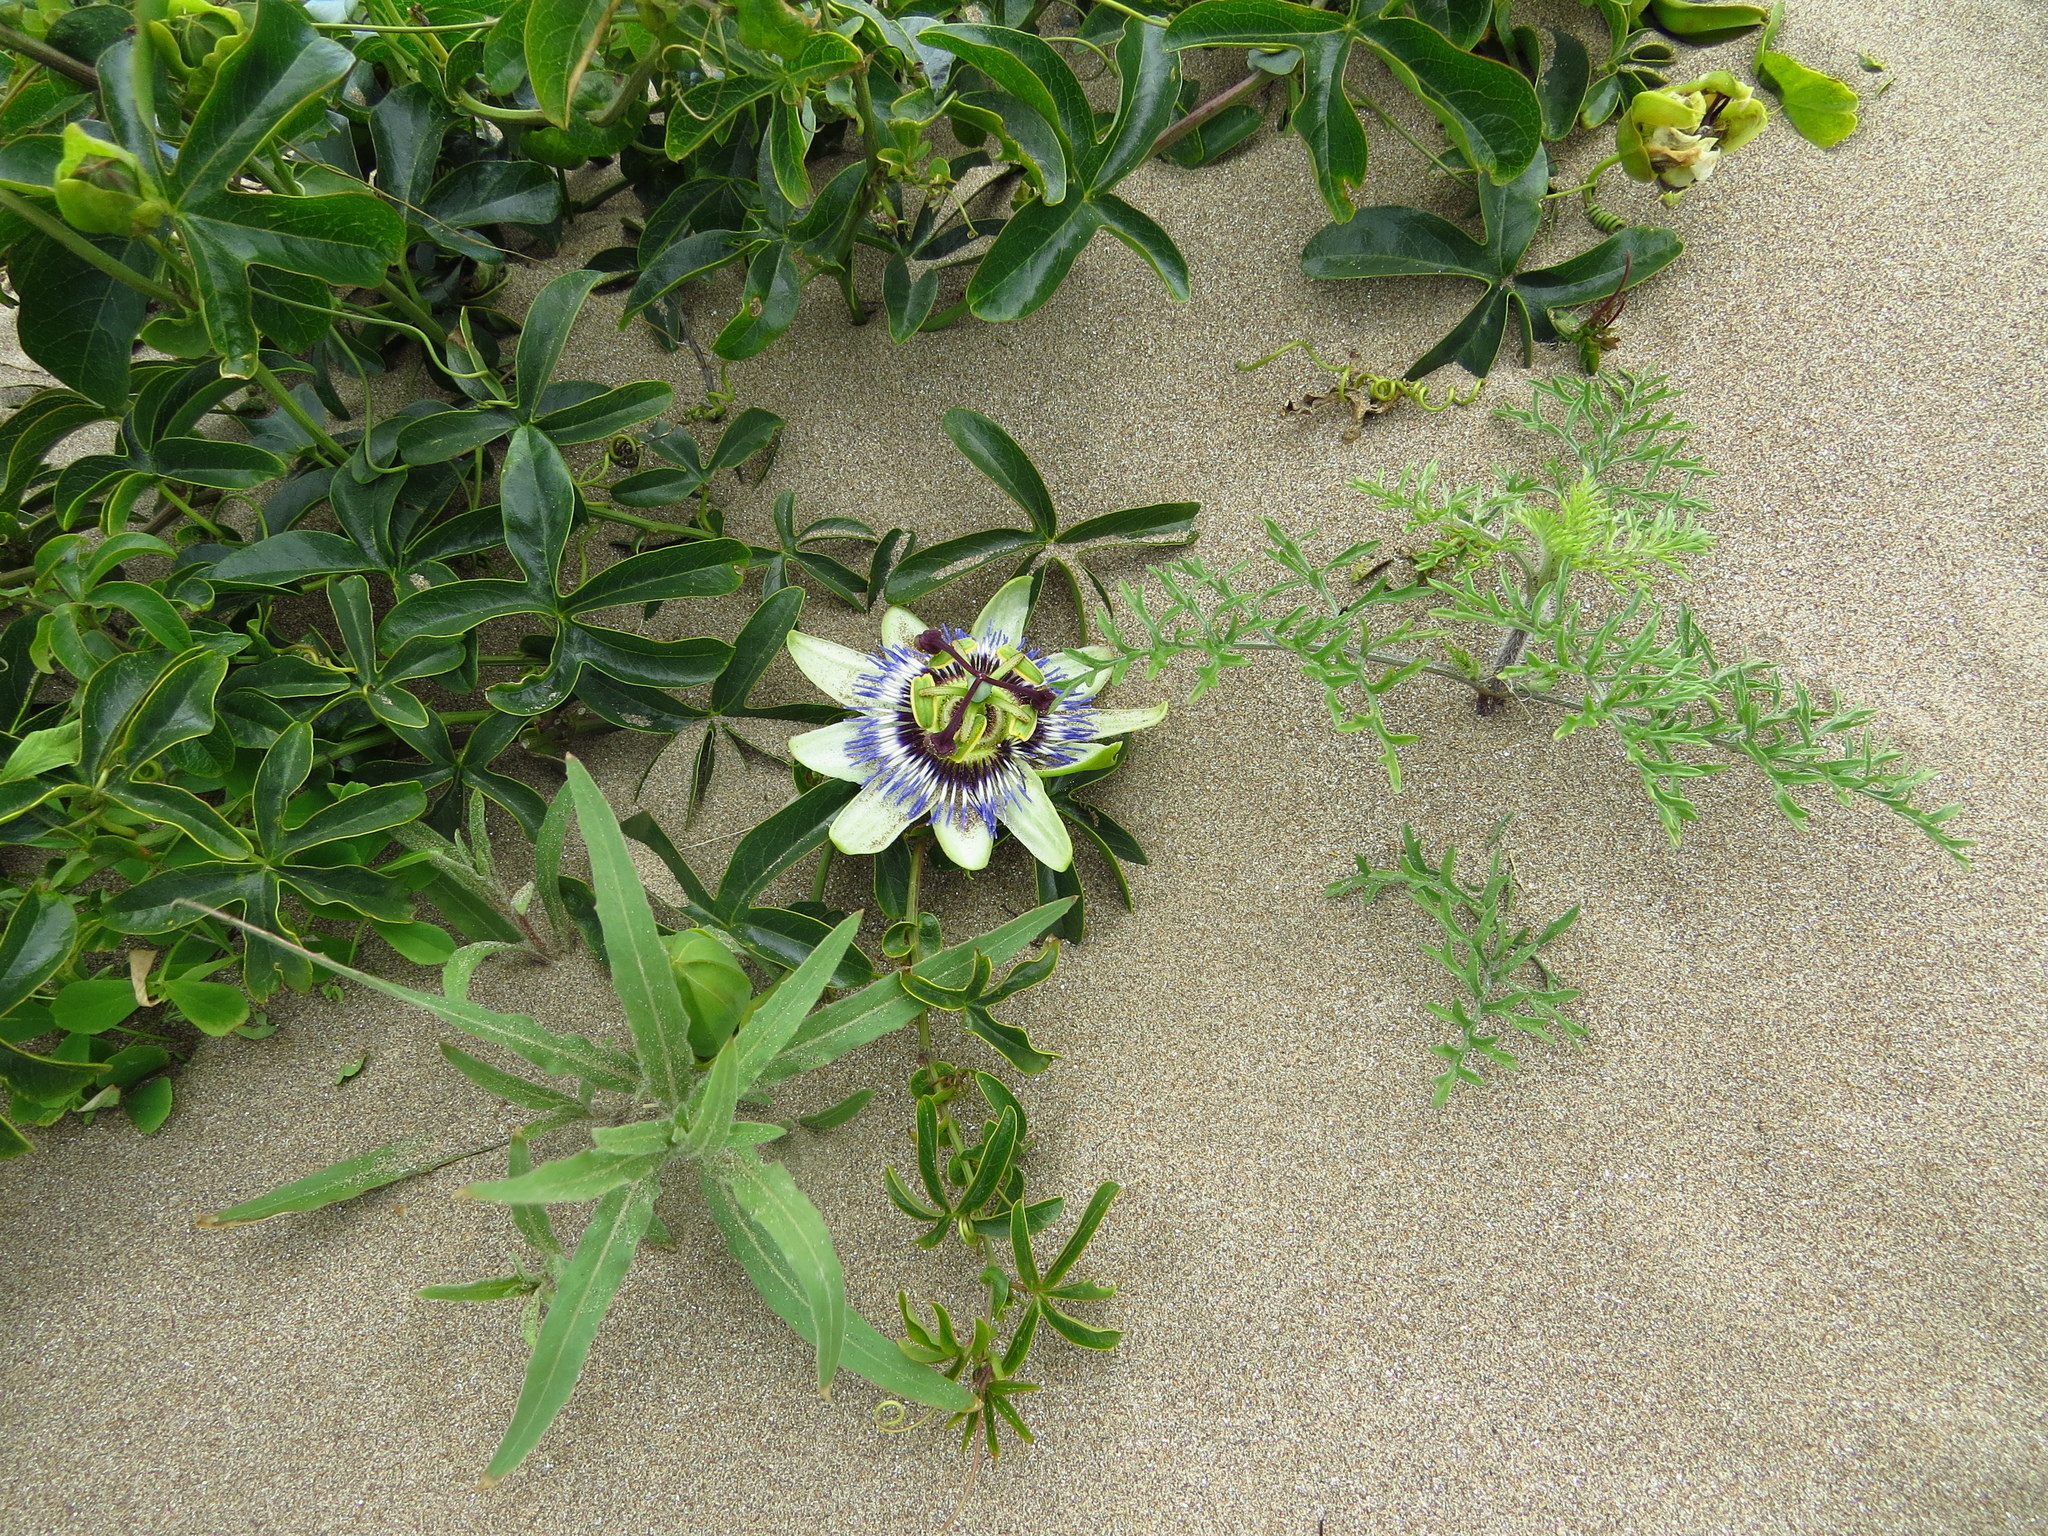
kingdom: Plantae
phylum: Tracheophyta
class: Magnoliopsida
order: Malpighiales
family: Passifloraceae
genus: Passiflora
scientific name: Passiflora caerulea
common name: Blue passionflower
